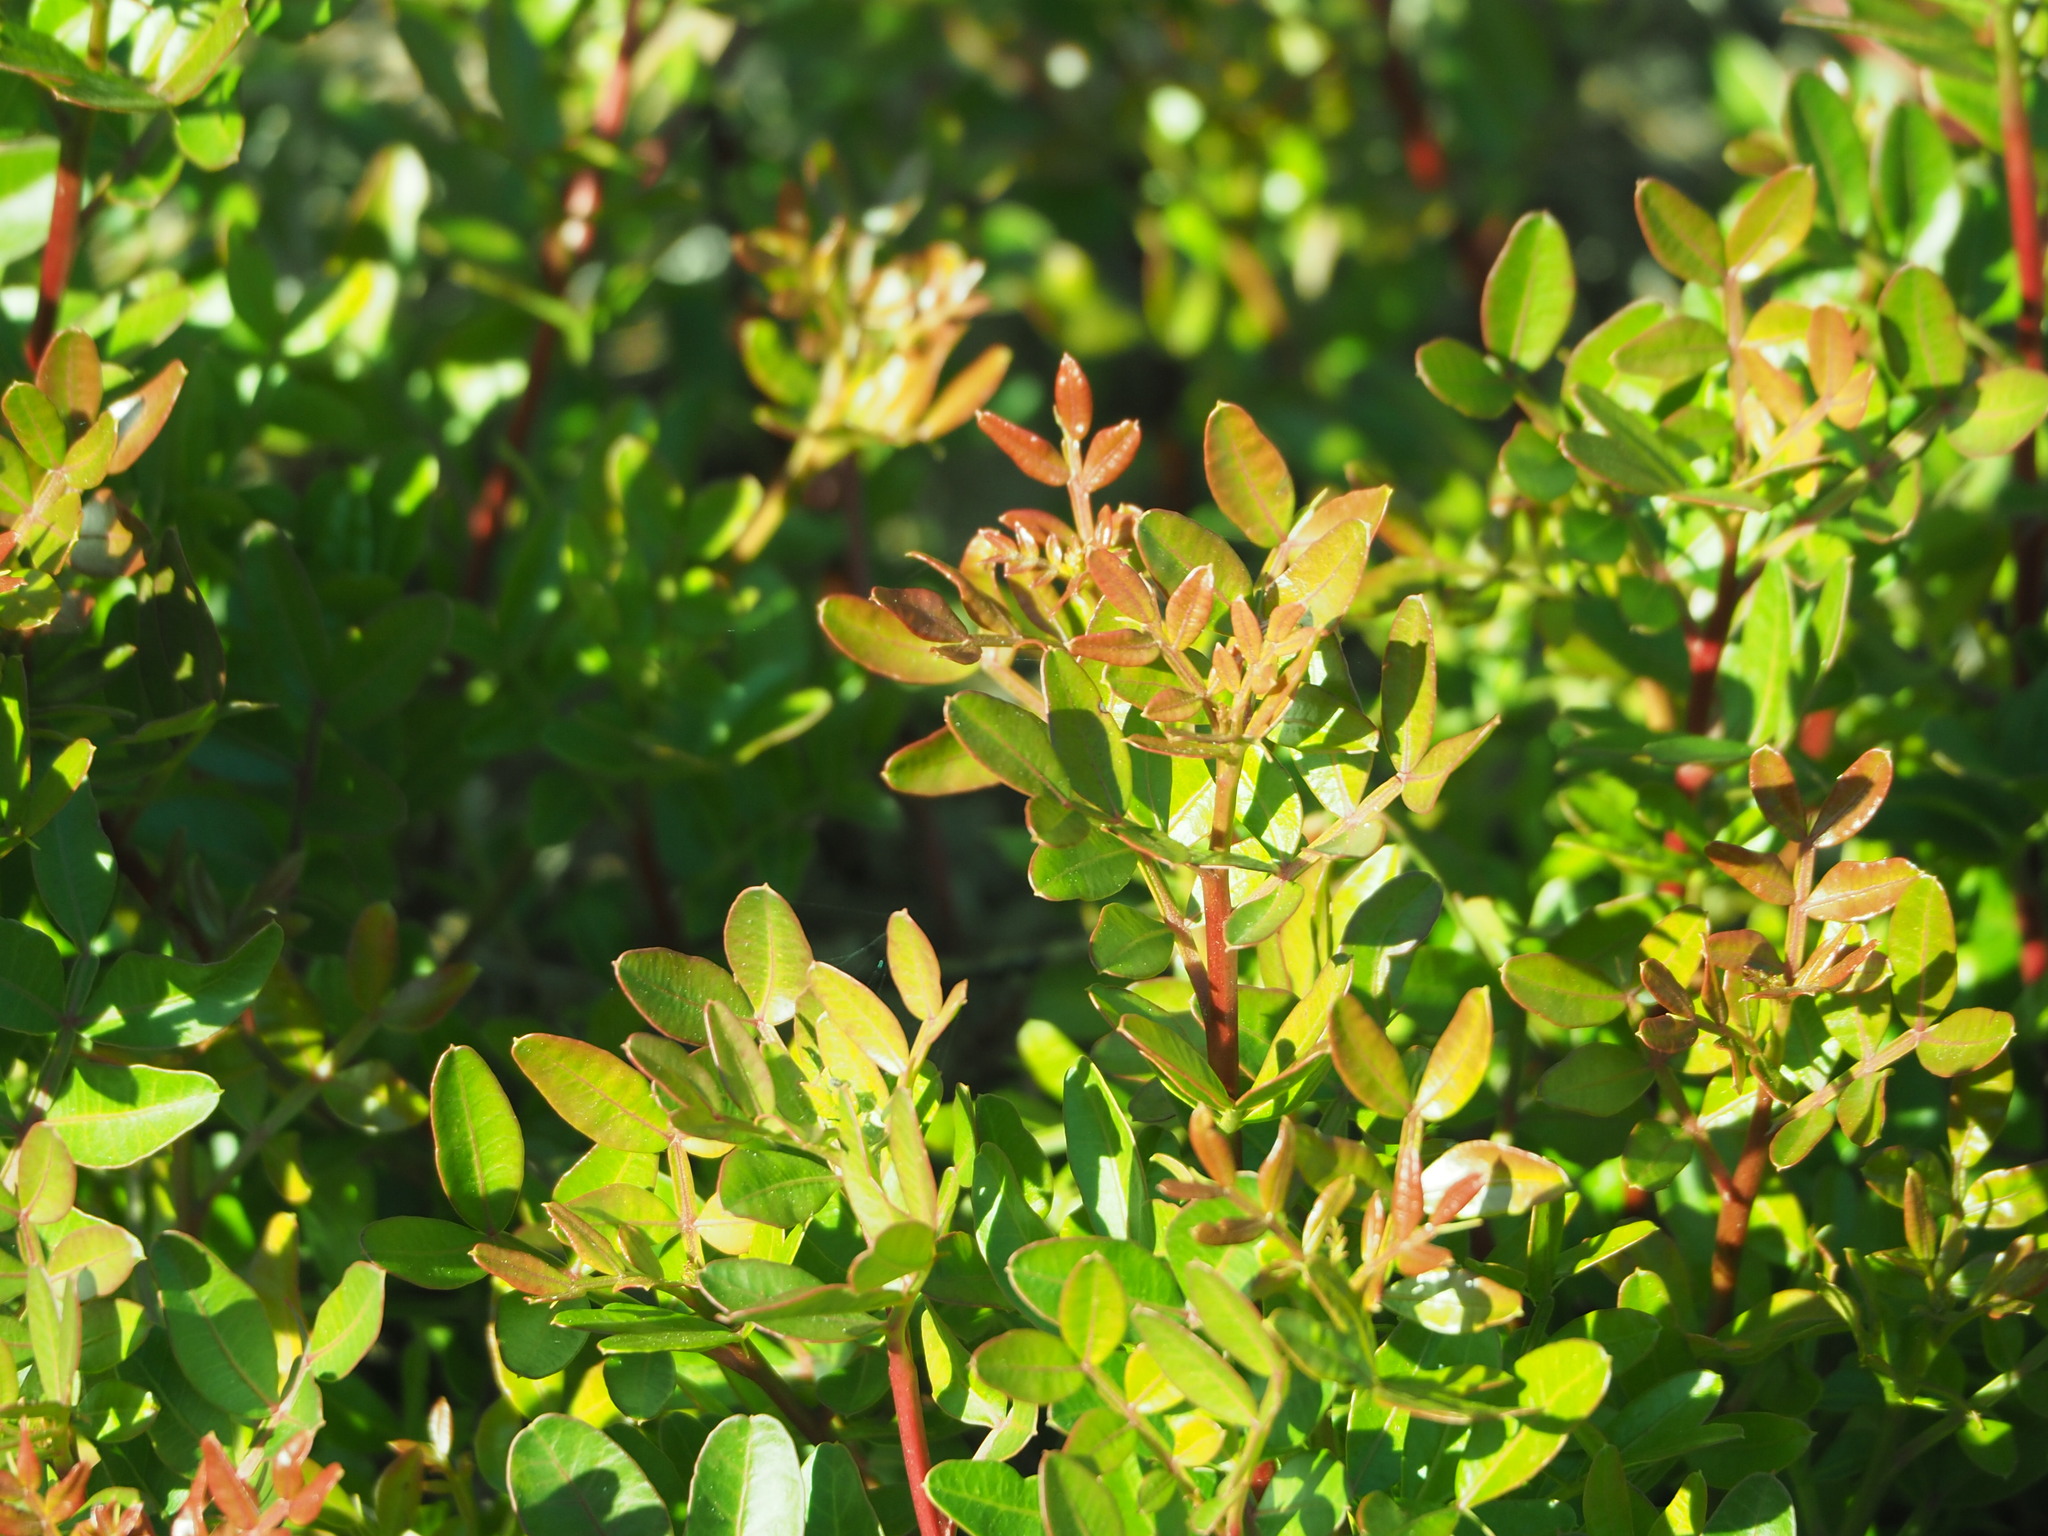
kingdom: Plantae
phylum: Tracheophyta
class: Magnoliopsida
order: Sapindales
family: Anacardiaceae
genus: Pistacia
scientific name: Pistacia lentiscus
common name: Lentisk
